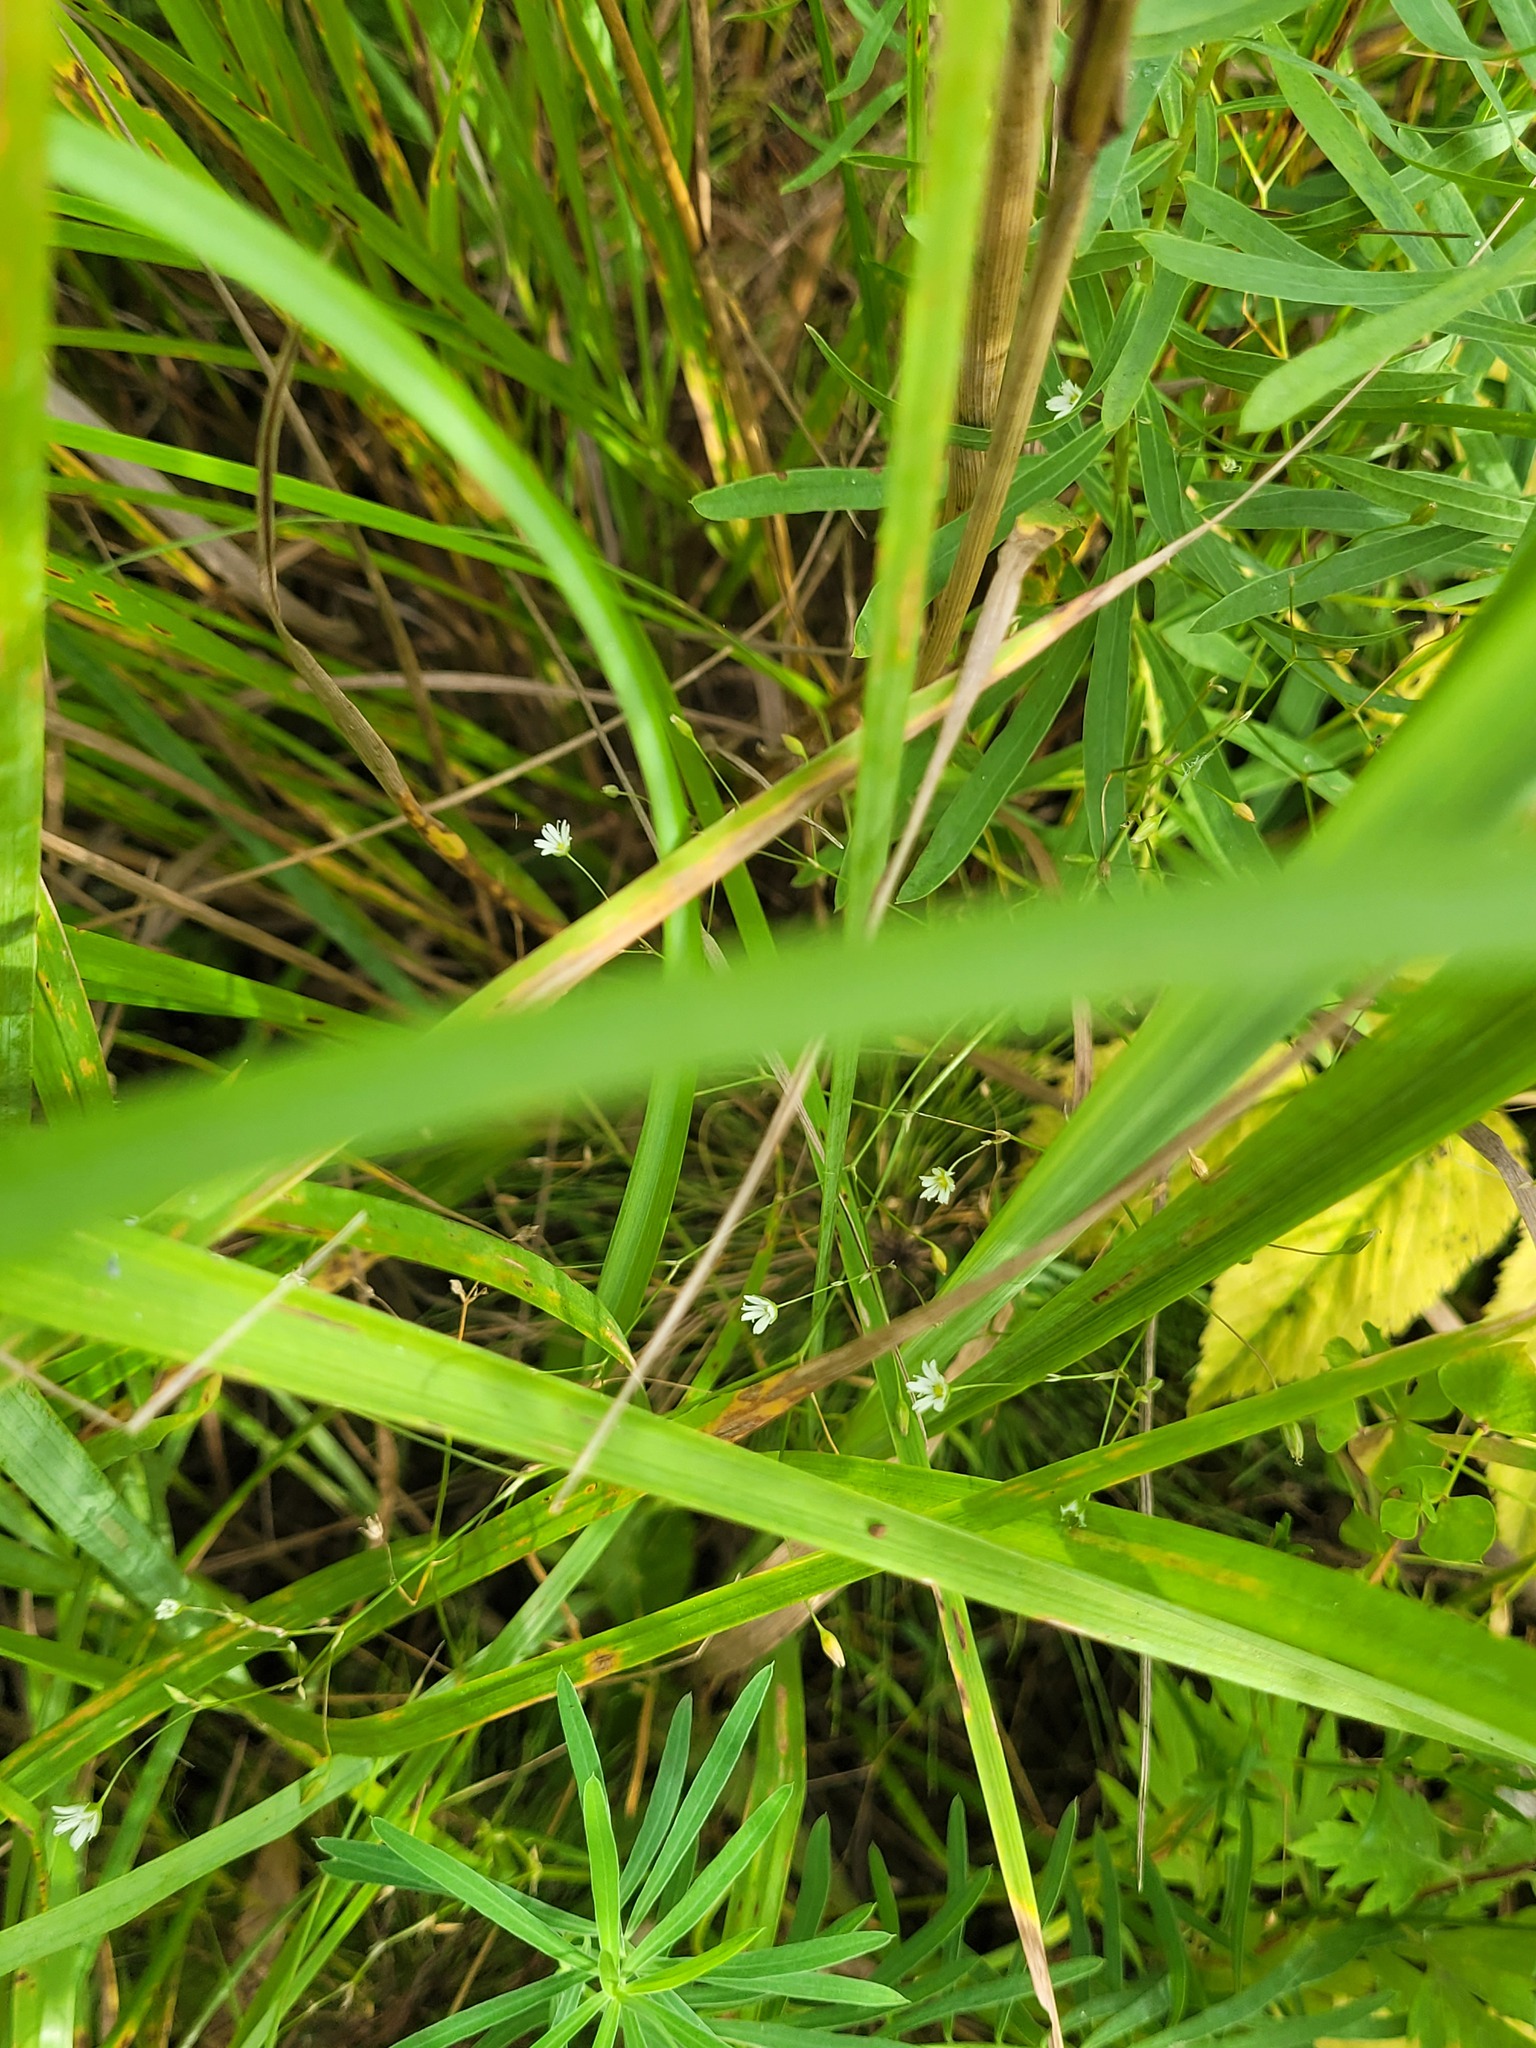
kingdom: Plantae
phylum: Tracheophyta
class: Magnoliopsida
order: Caryophyllales
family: Caryophyllaceae
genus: Stellaria
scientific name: Stellaria graminea
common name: Grass-like starwort
